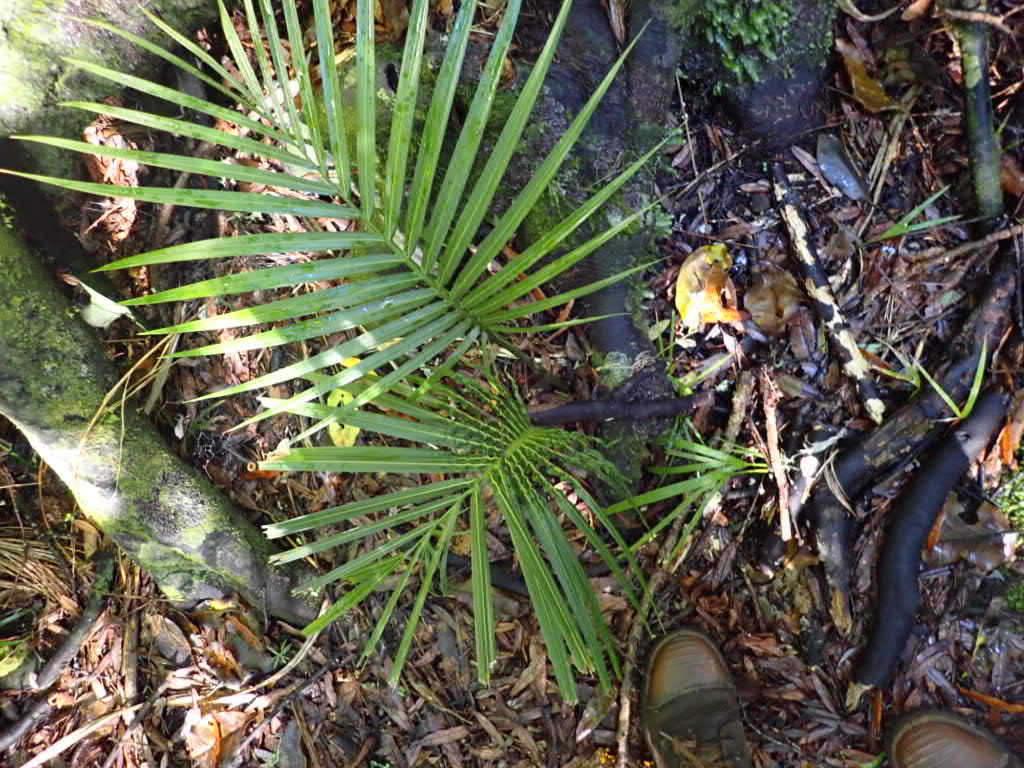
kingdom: Plantae
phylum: Tracheophyta
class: Liliopsida
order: Arecales
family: Arecaceae
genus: Rhopalostylis
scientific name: Rhopalostylis sapida
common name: Feather-duster palm
